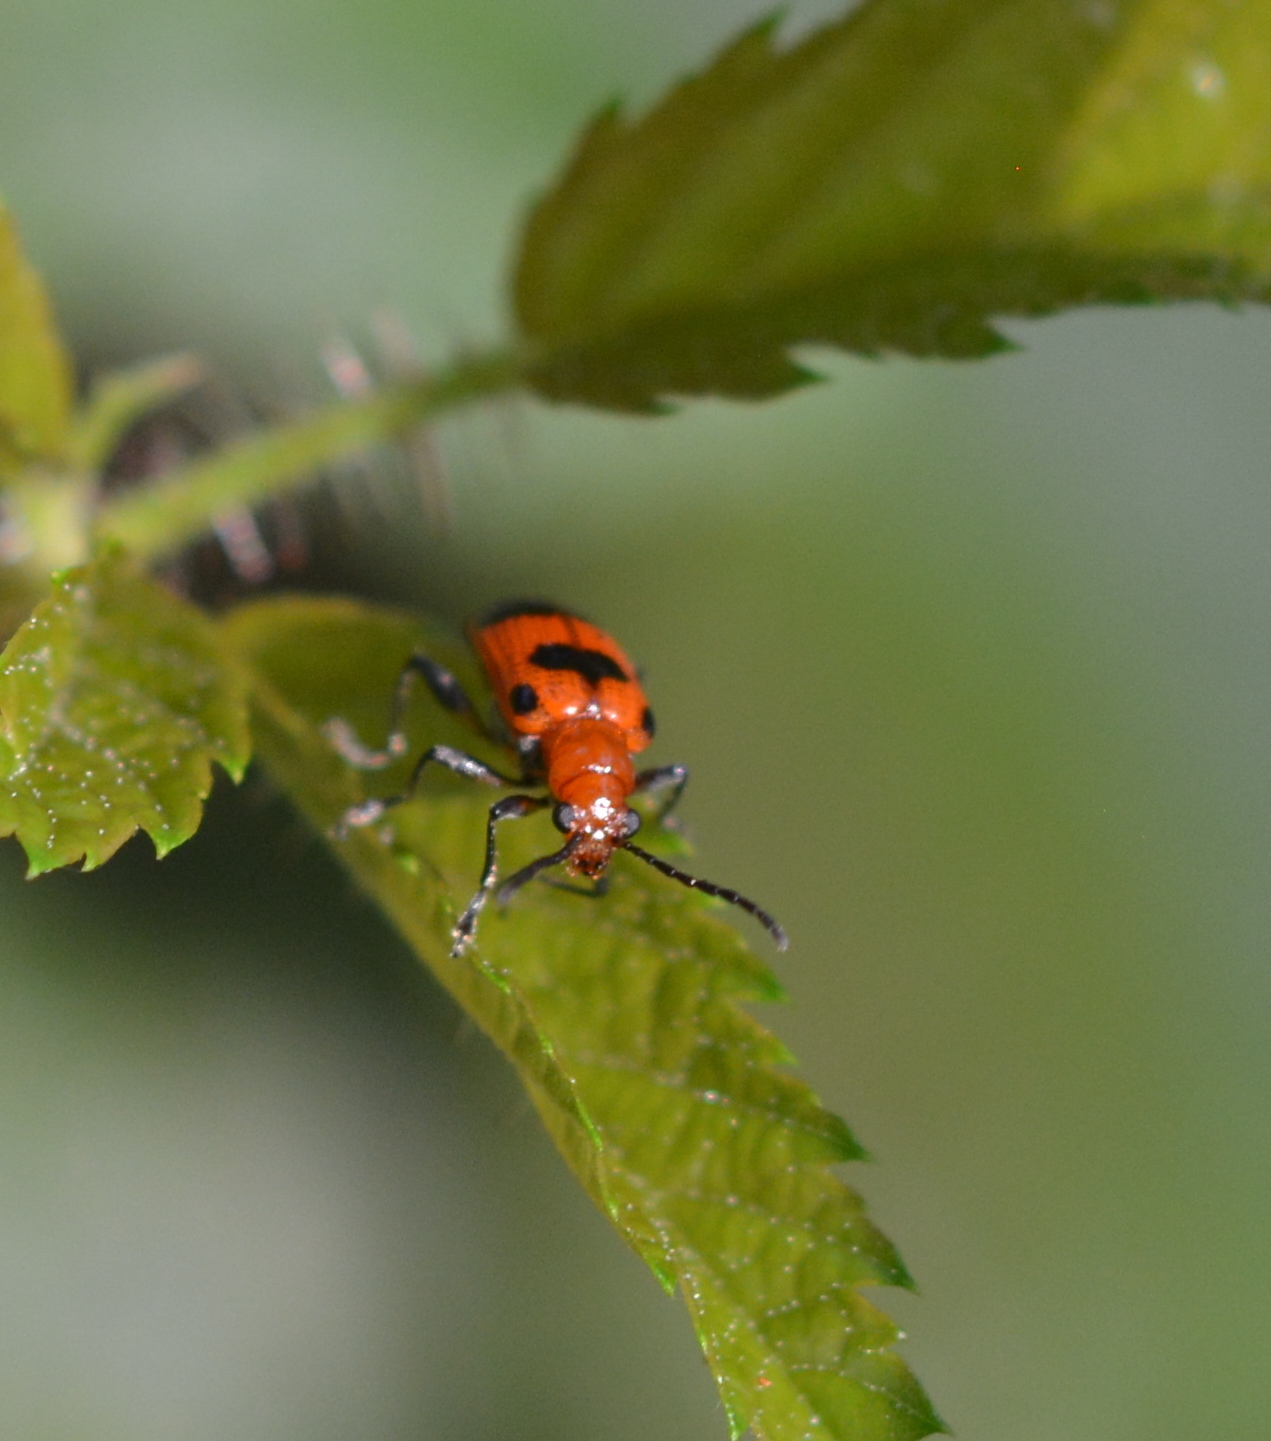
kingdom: Animalia
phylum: Arthropoda
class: Insecta
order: Coleoptera
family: Chrysomelidae
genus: Neolema
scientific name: Neolema sexpunctata
